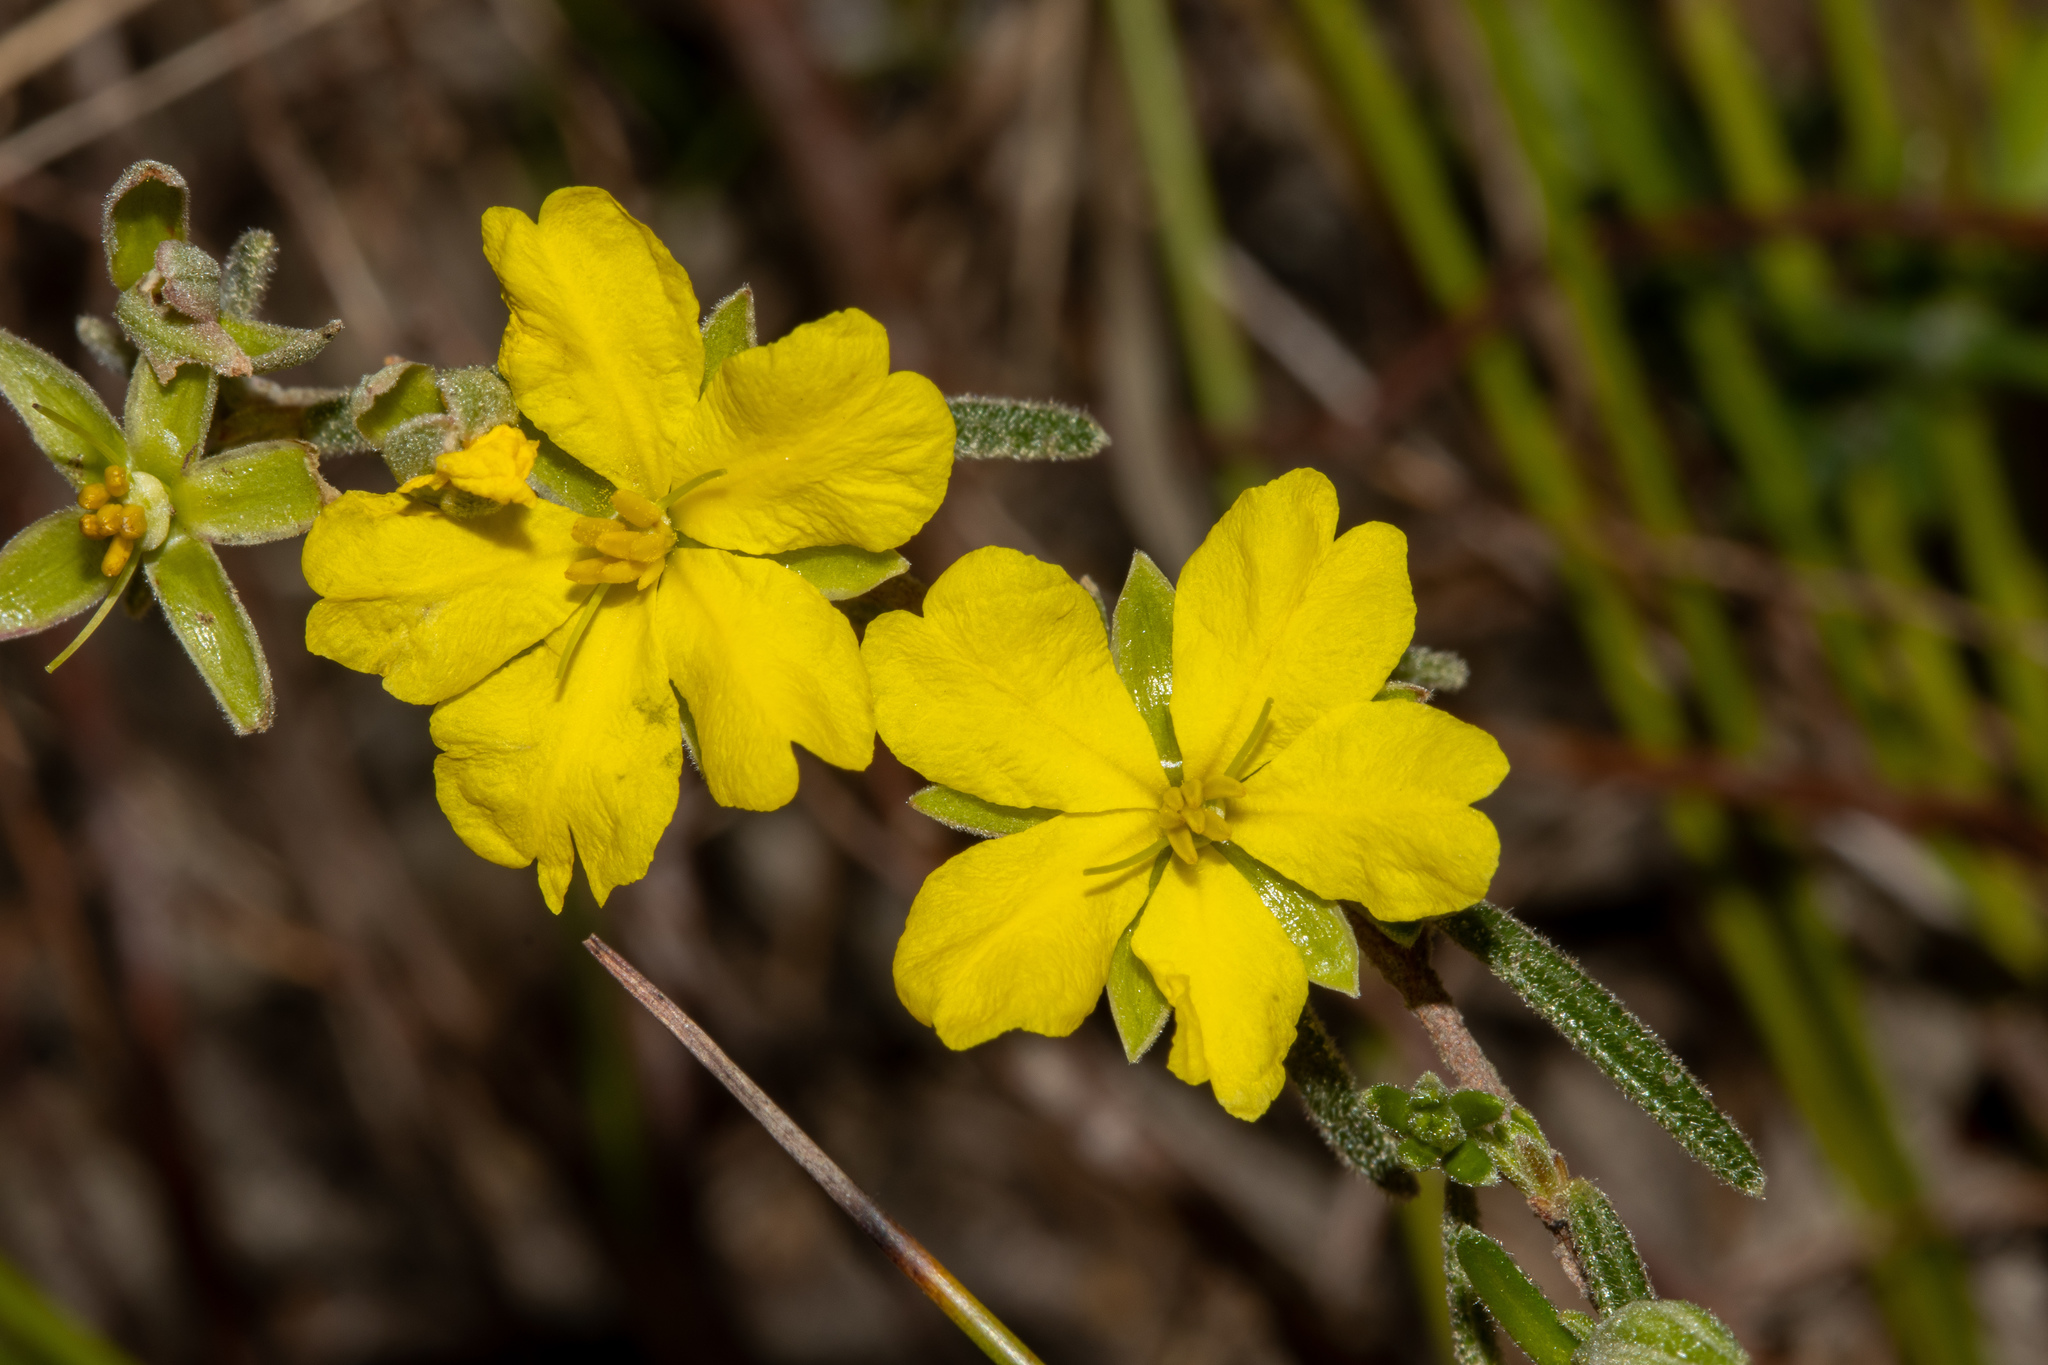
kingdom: Plantae
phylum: Tracheophyta
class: Magnoliopsida
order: Dilleniales
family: Dilleniaceae
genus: Hibbertia
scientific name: Hibbertia australis
